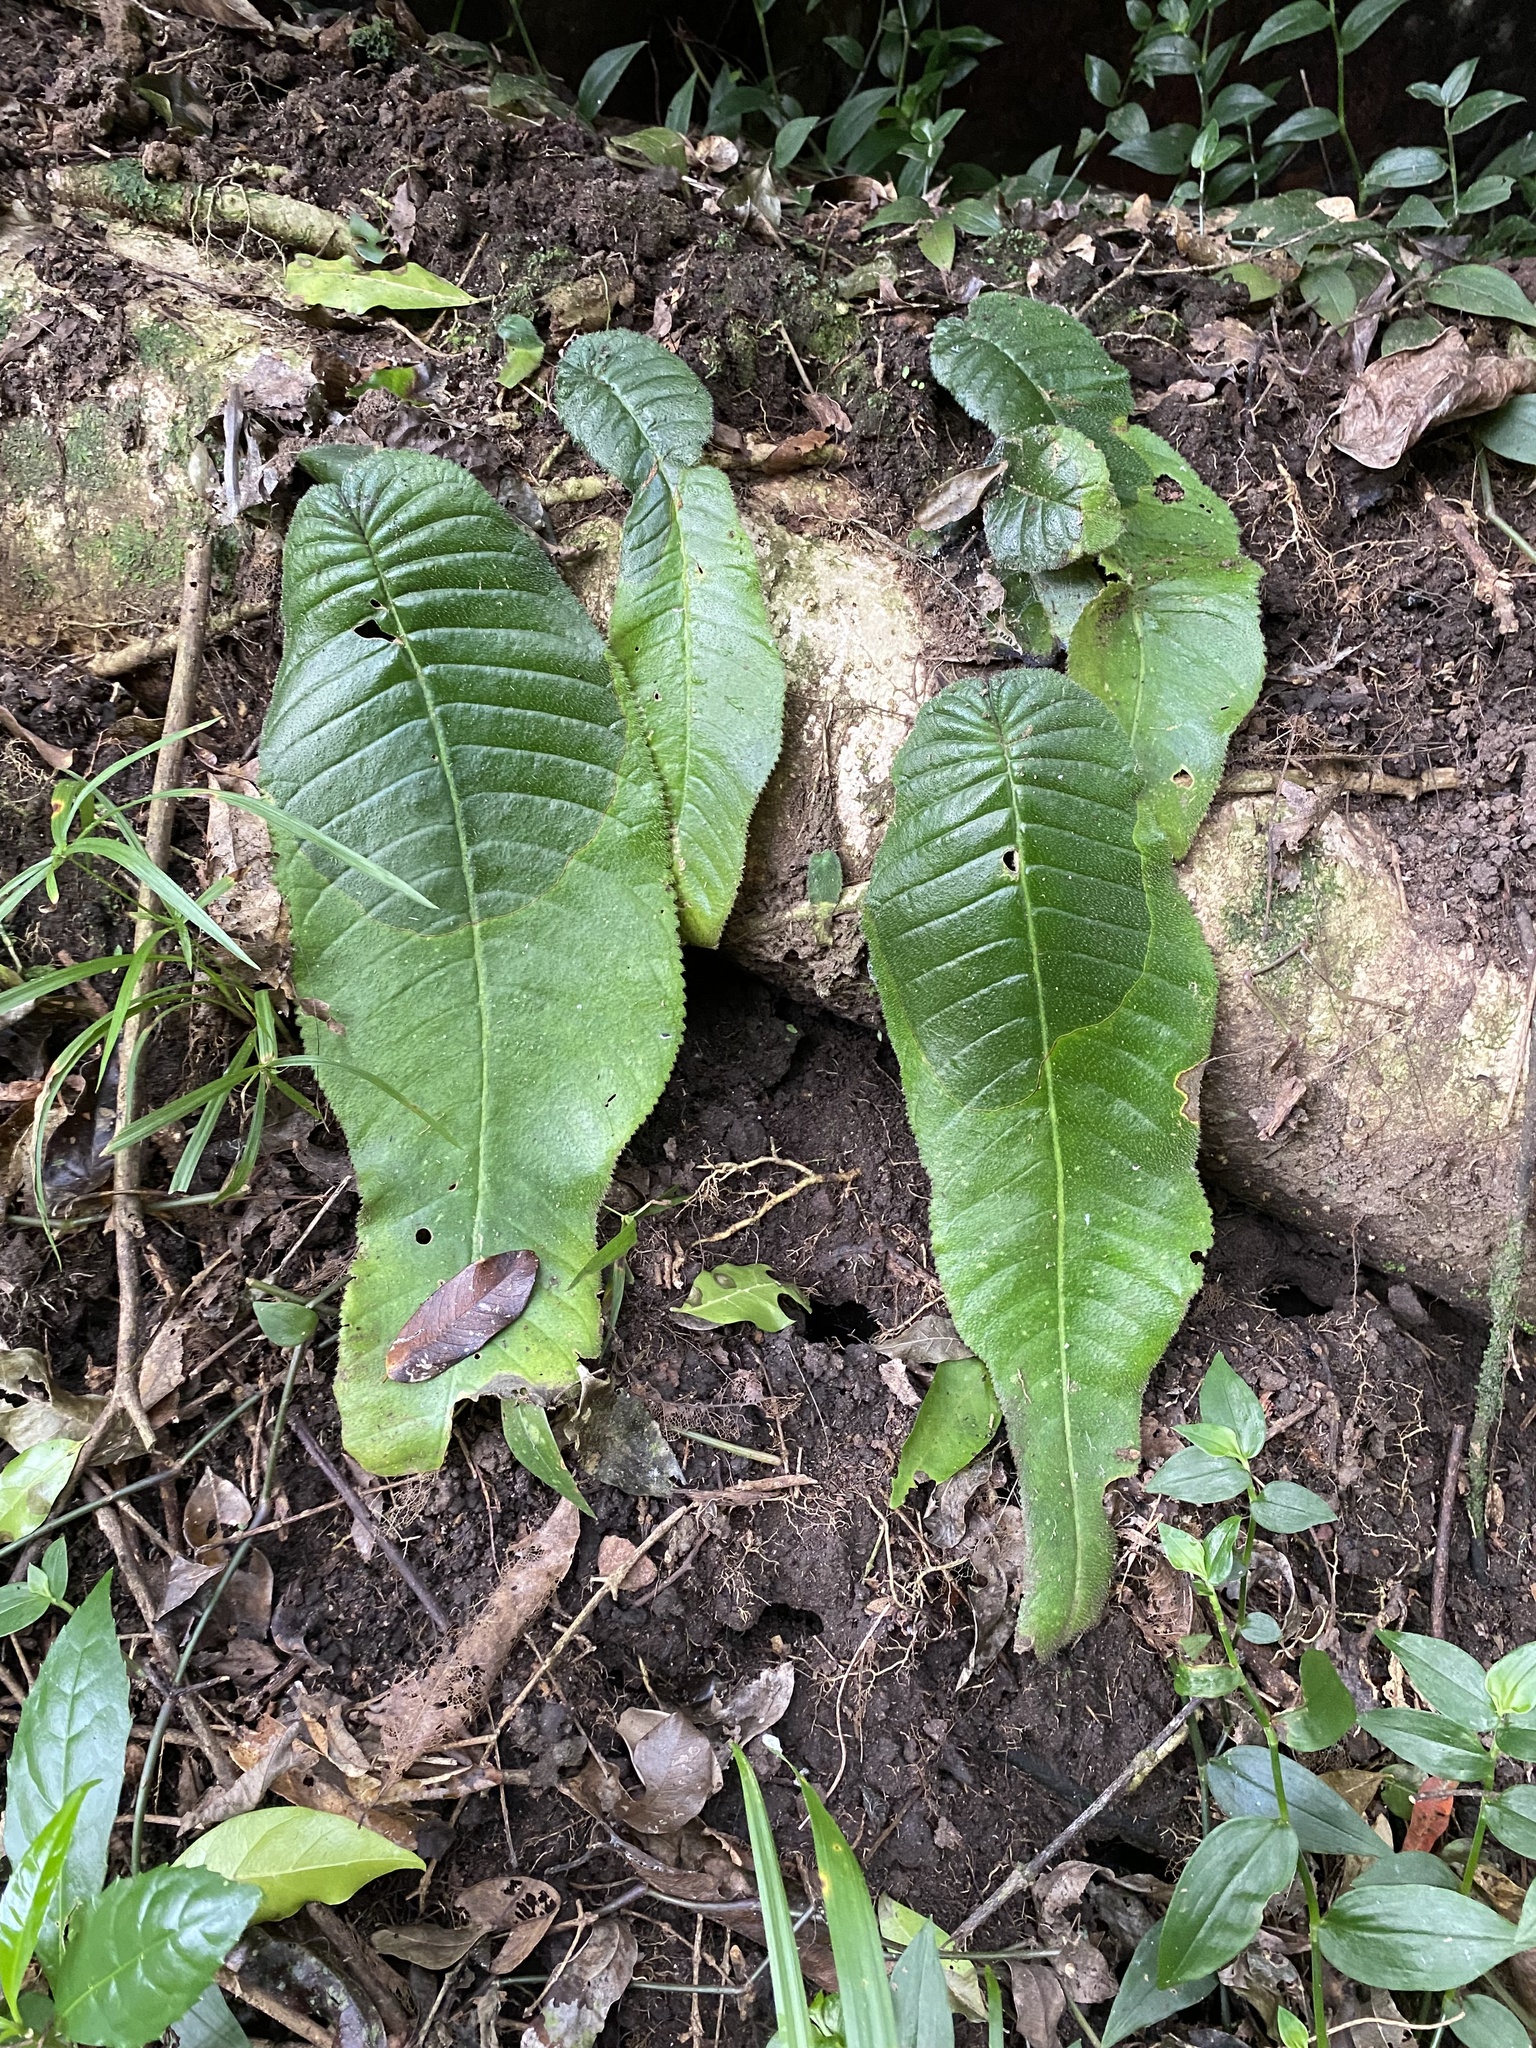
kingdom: Plantae
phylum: Tracheophyta
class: Magnoliopsida
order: Lamiales
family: Gesneriaceae
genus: Streptocarpus
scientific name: Streptocarpus molweniensis
